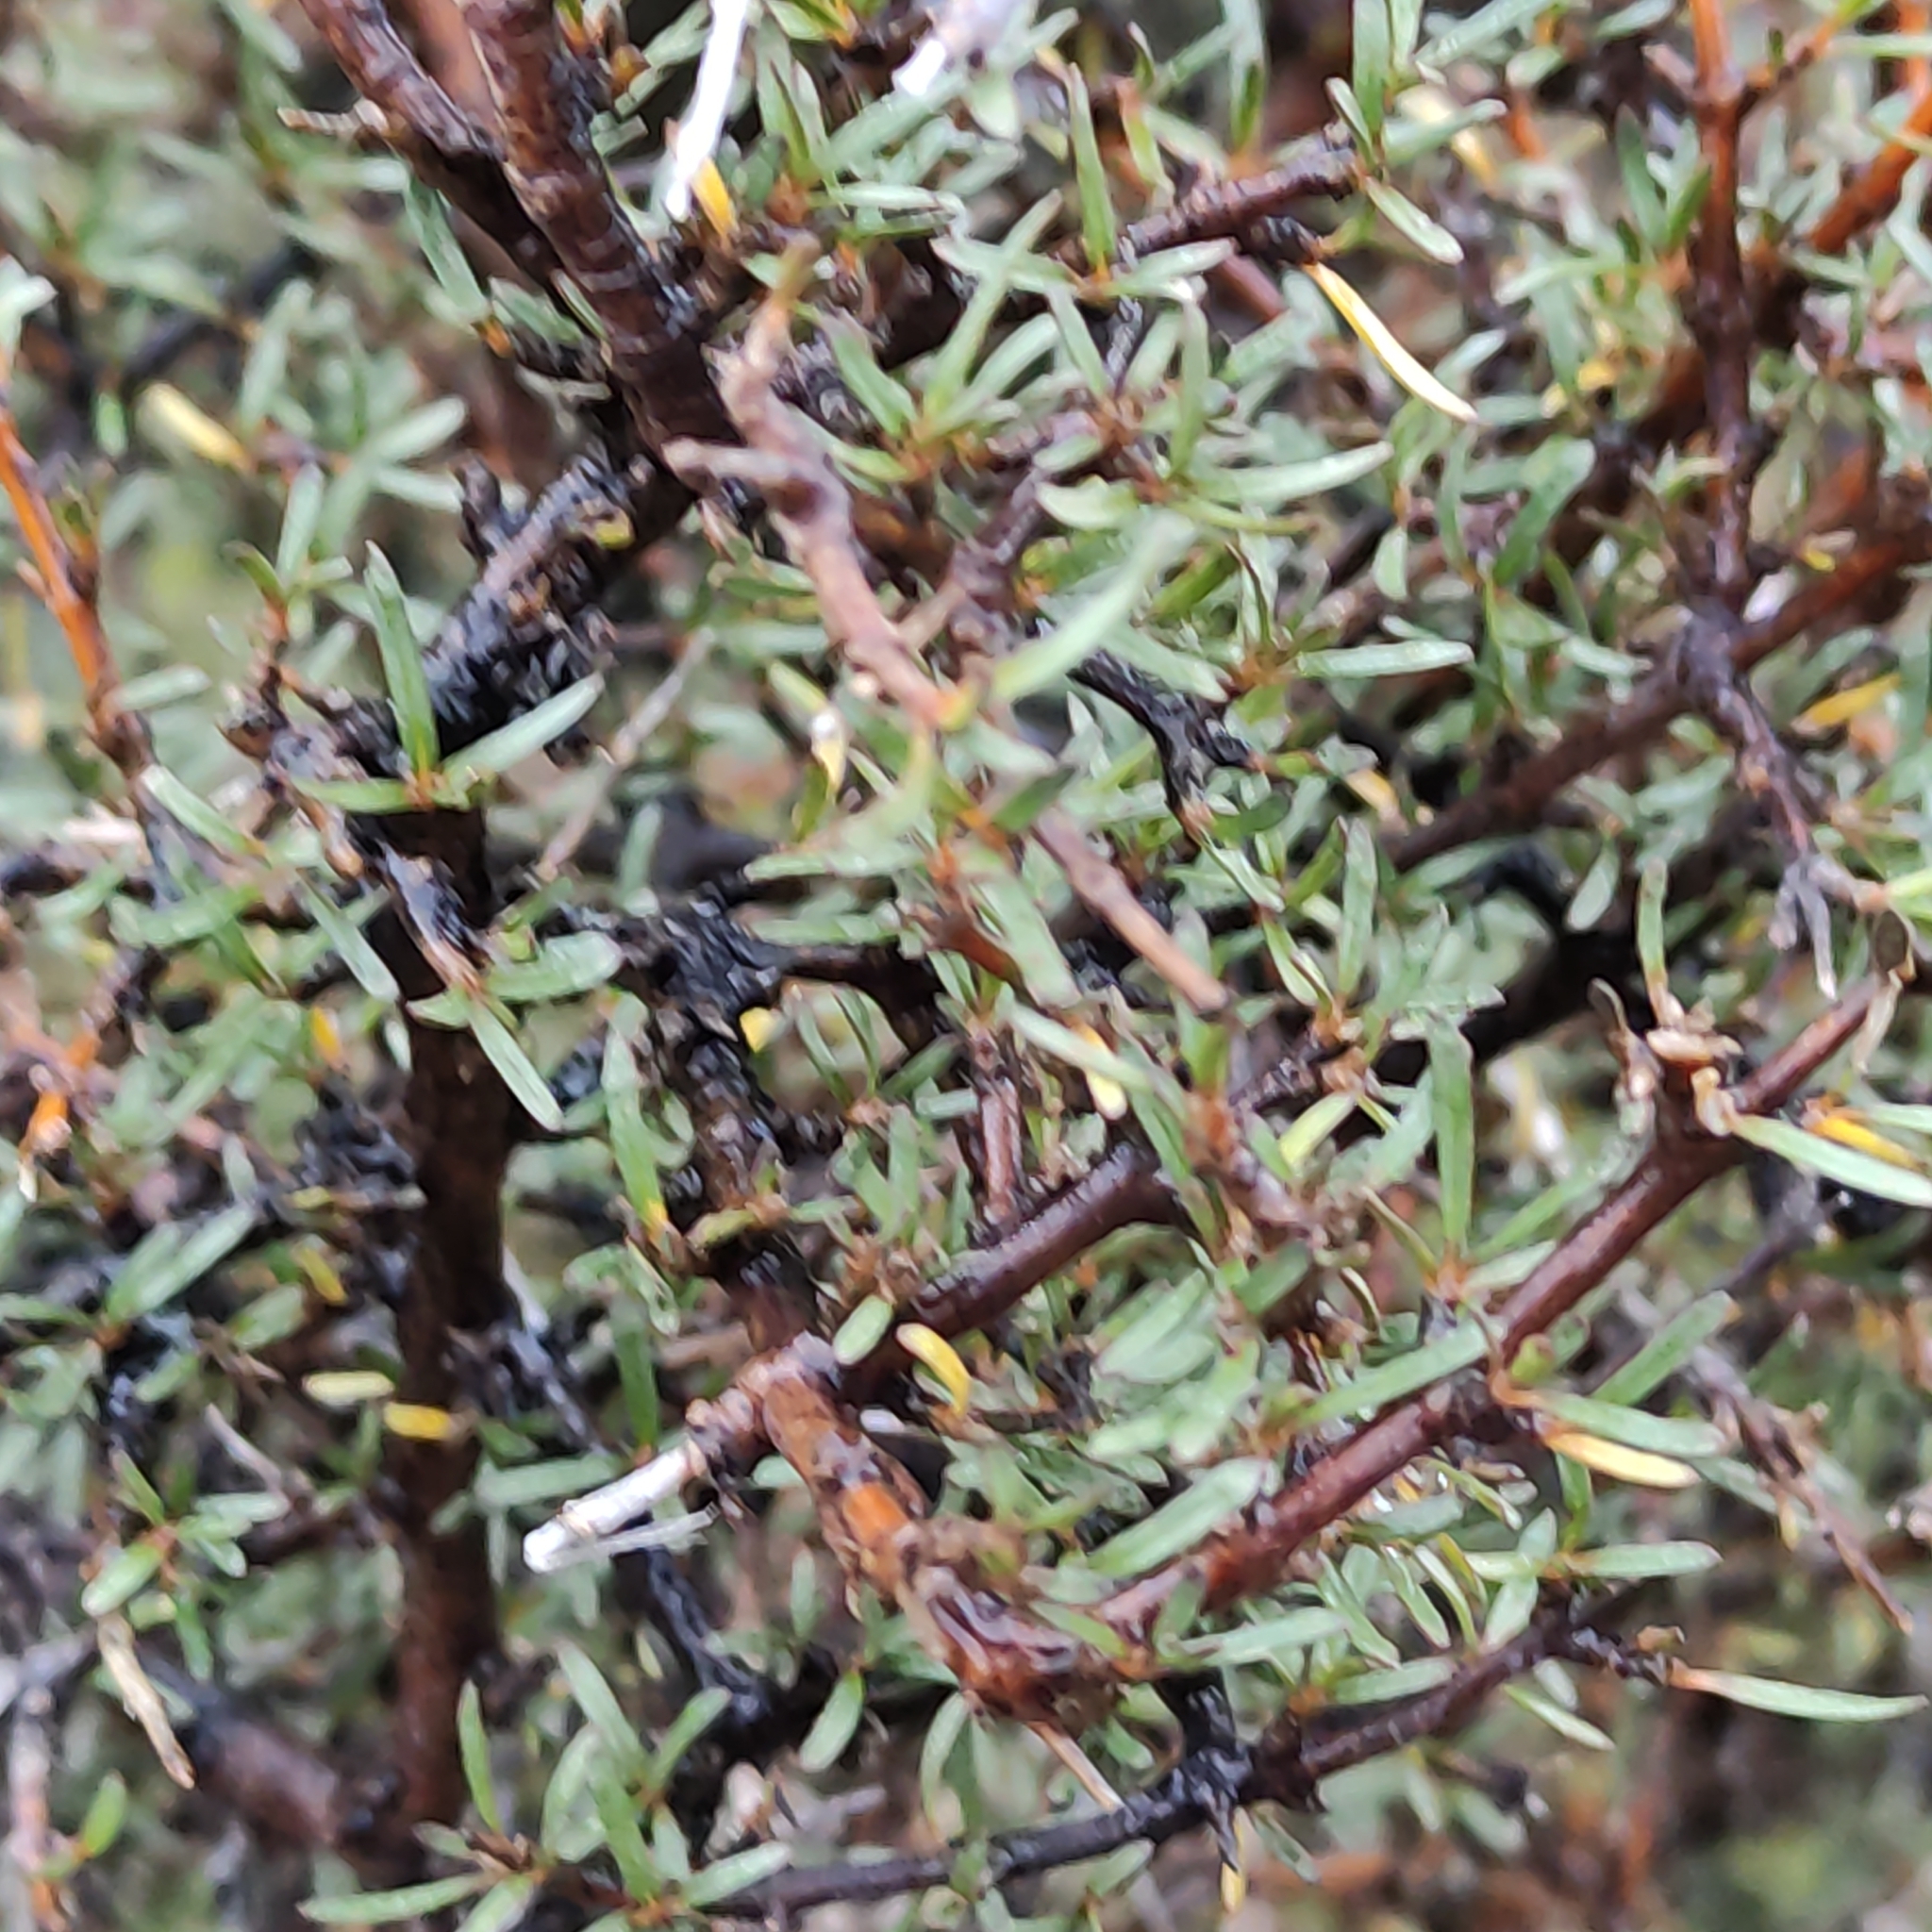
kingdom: Plantae
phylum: Tracheophyta
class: Magnoliopsida
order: Gentianales
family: Rubiaceae
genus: Coprosma
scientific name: Coprosma rugosa
